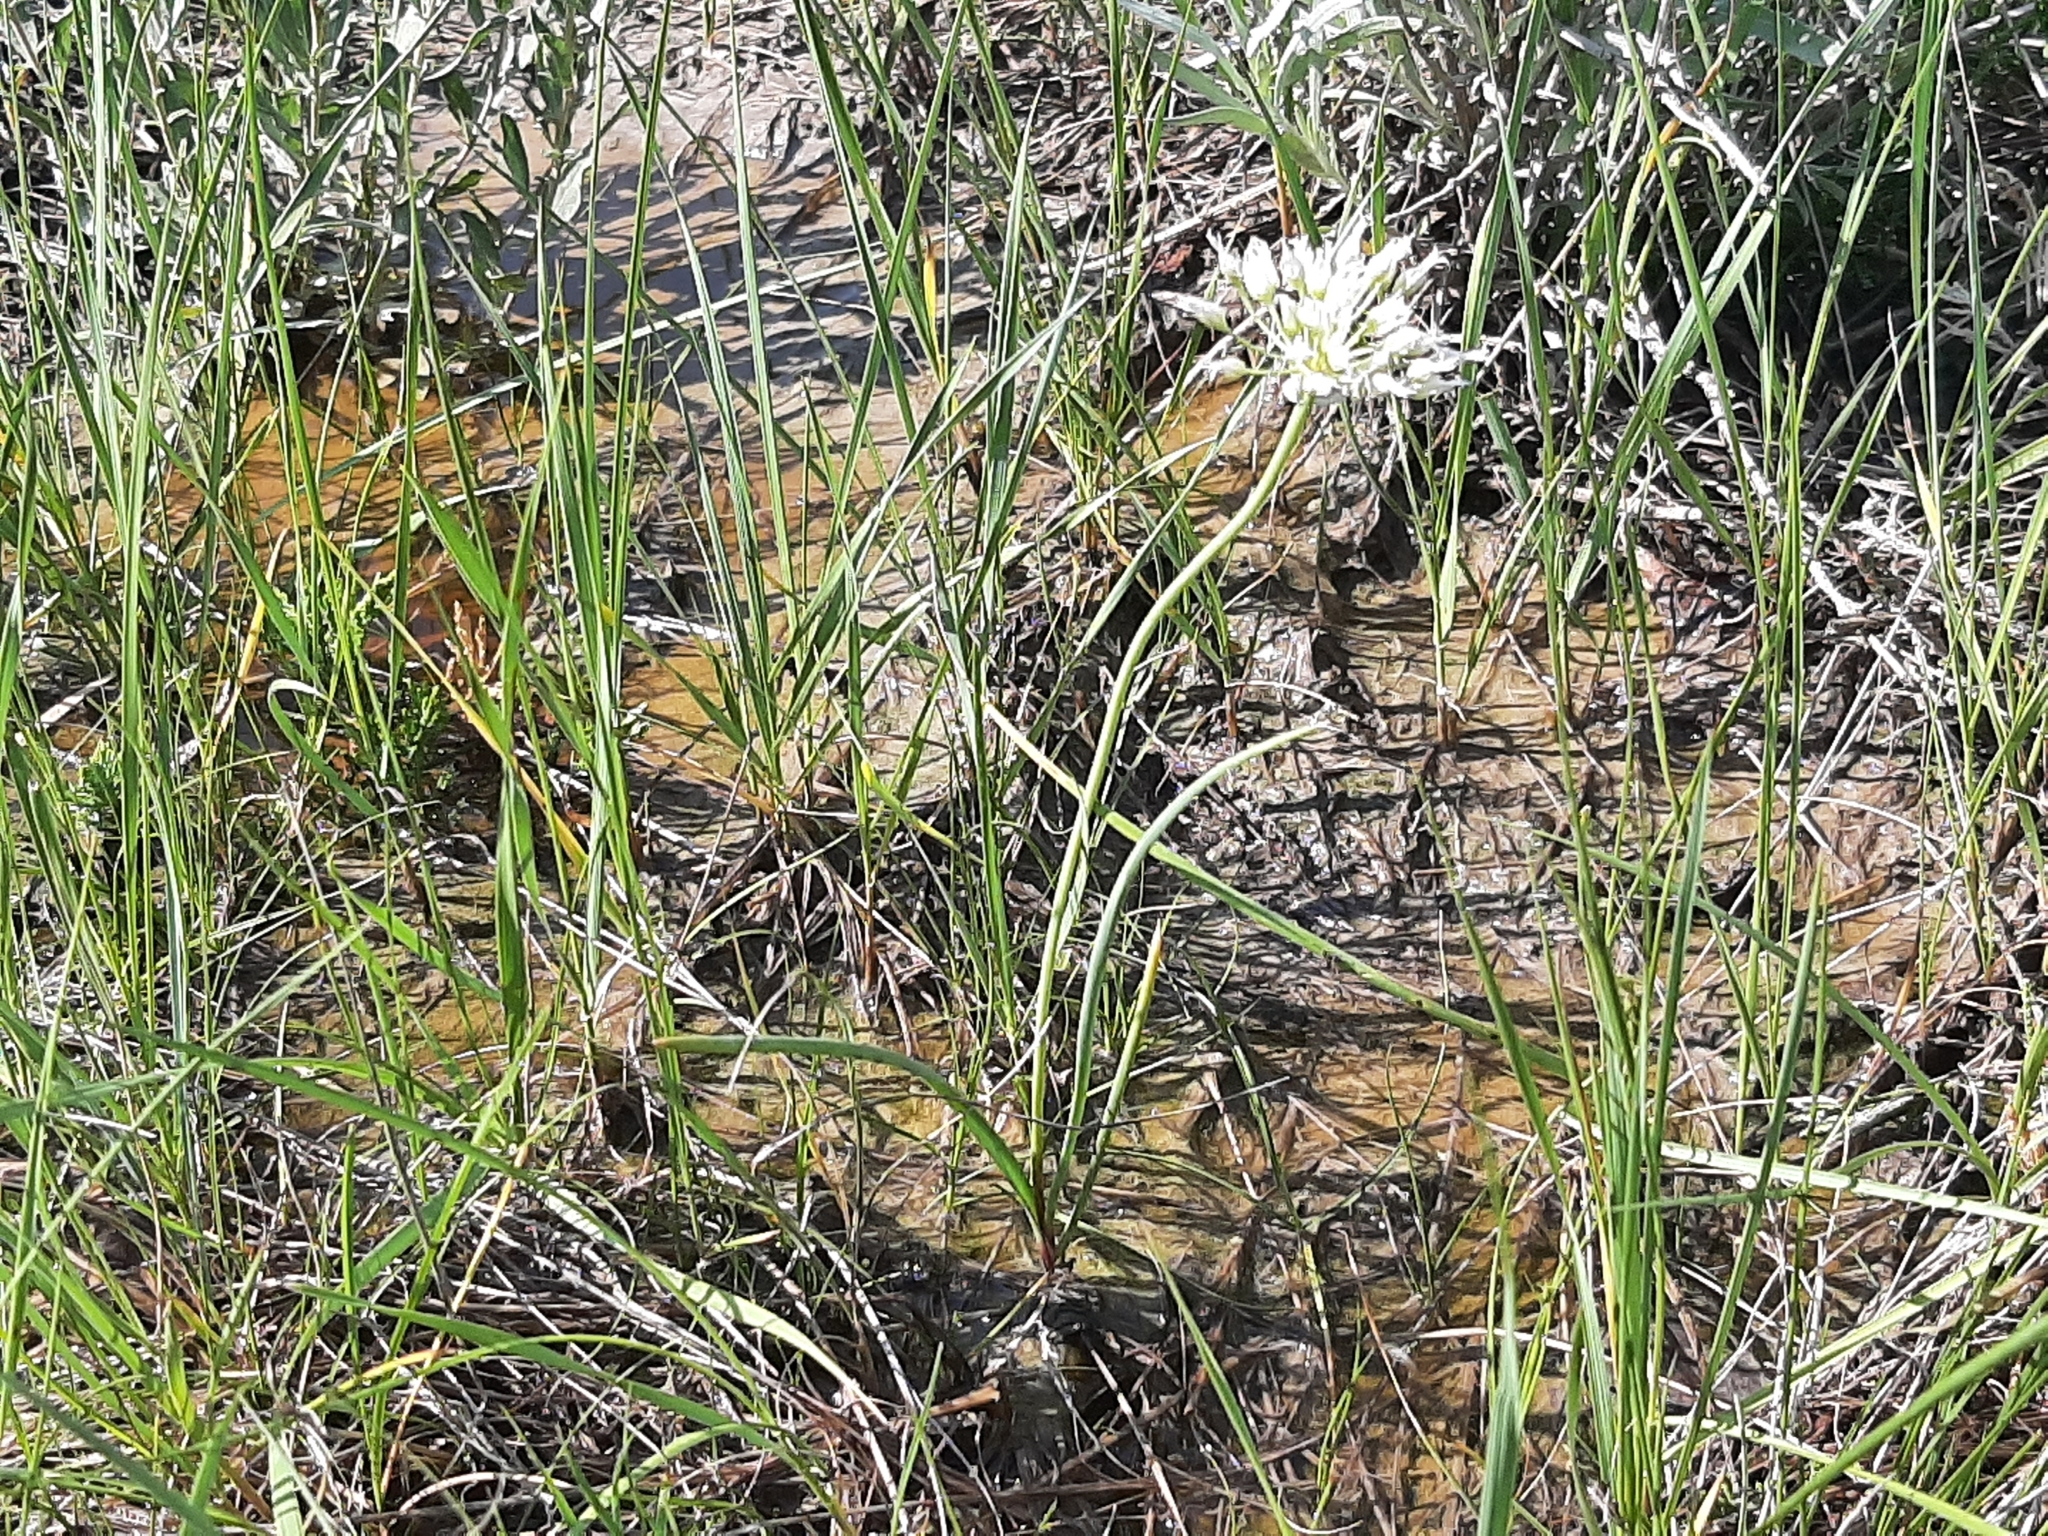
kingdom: Plantae
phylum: Tracheophyta
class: Liliopsida
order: Asparagales
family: Amaryllidaceae
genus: Allium
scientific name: Allium textile
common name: Prairie onion
